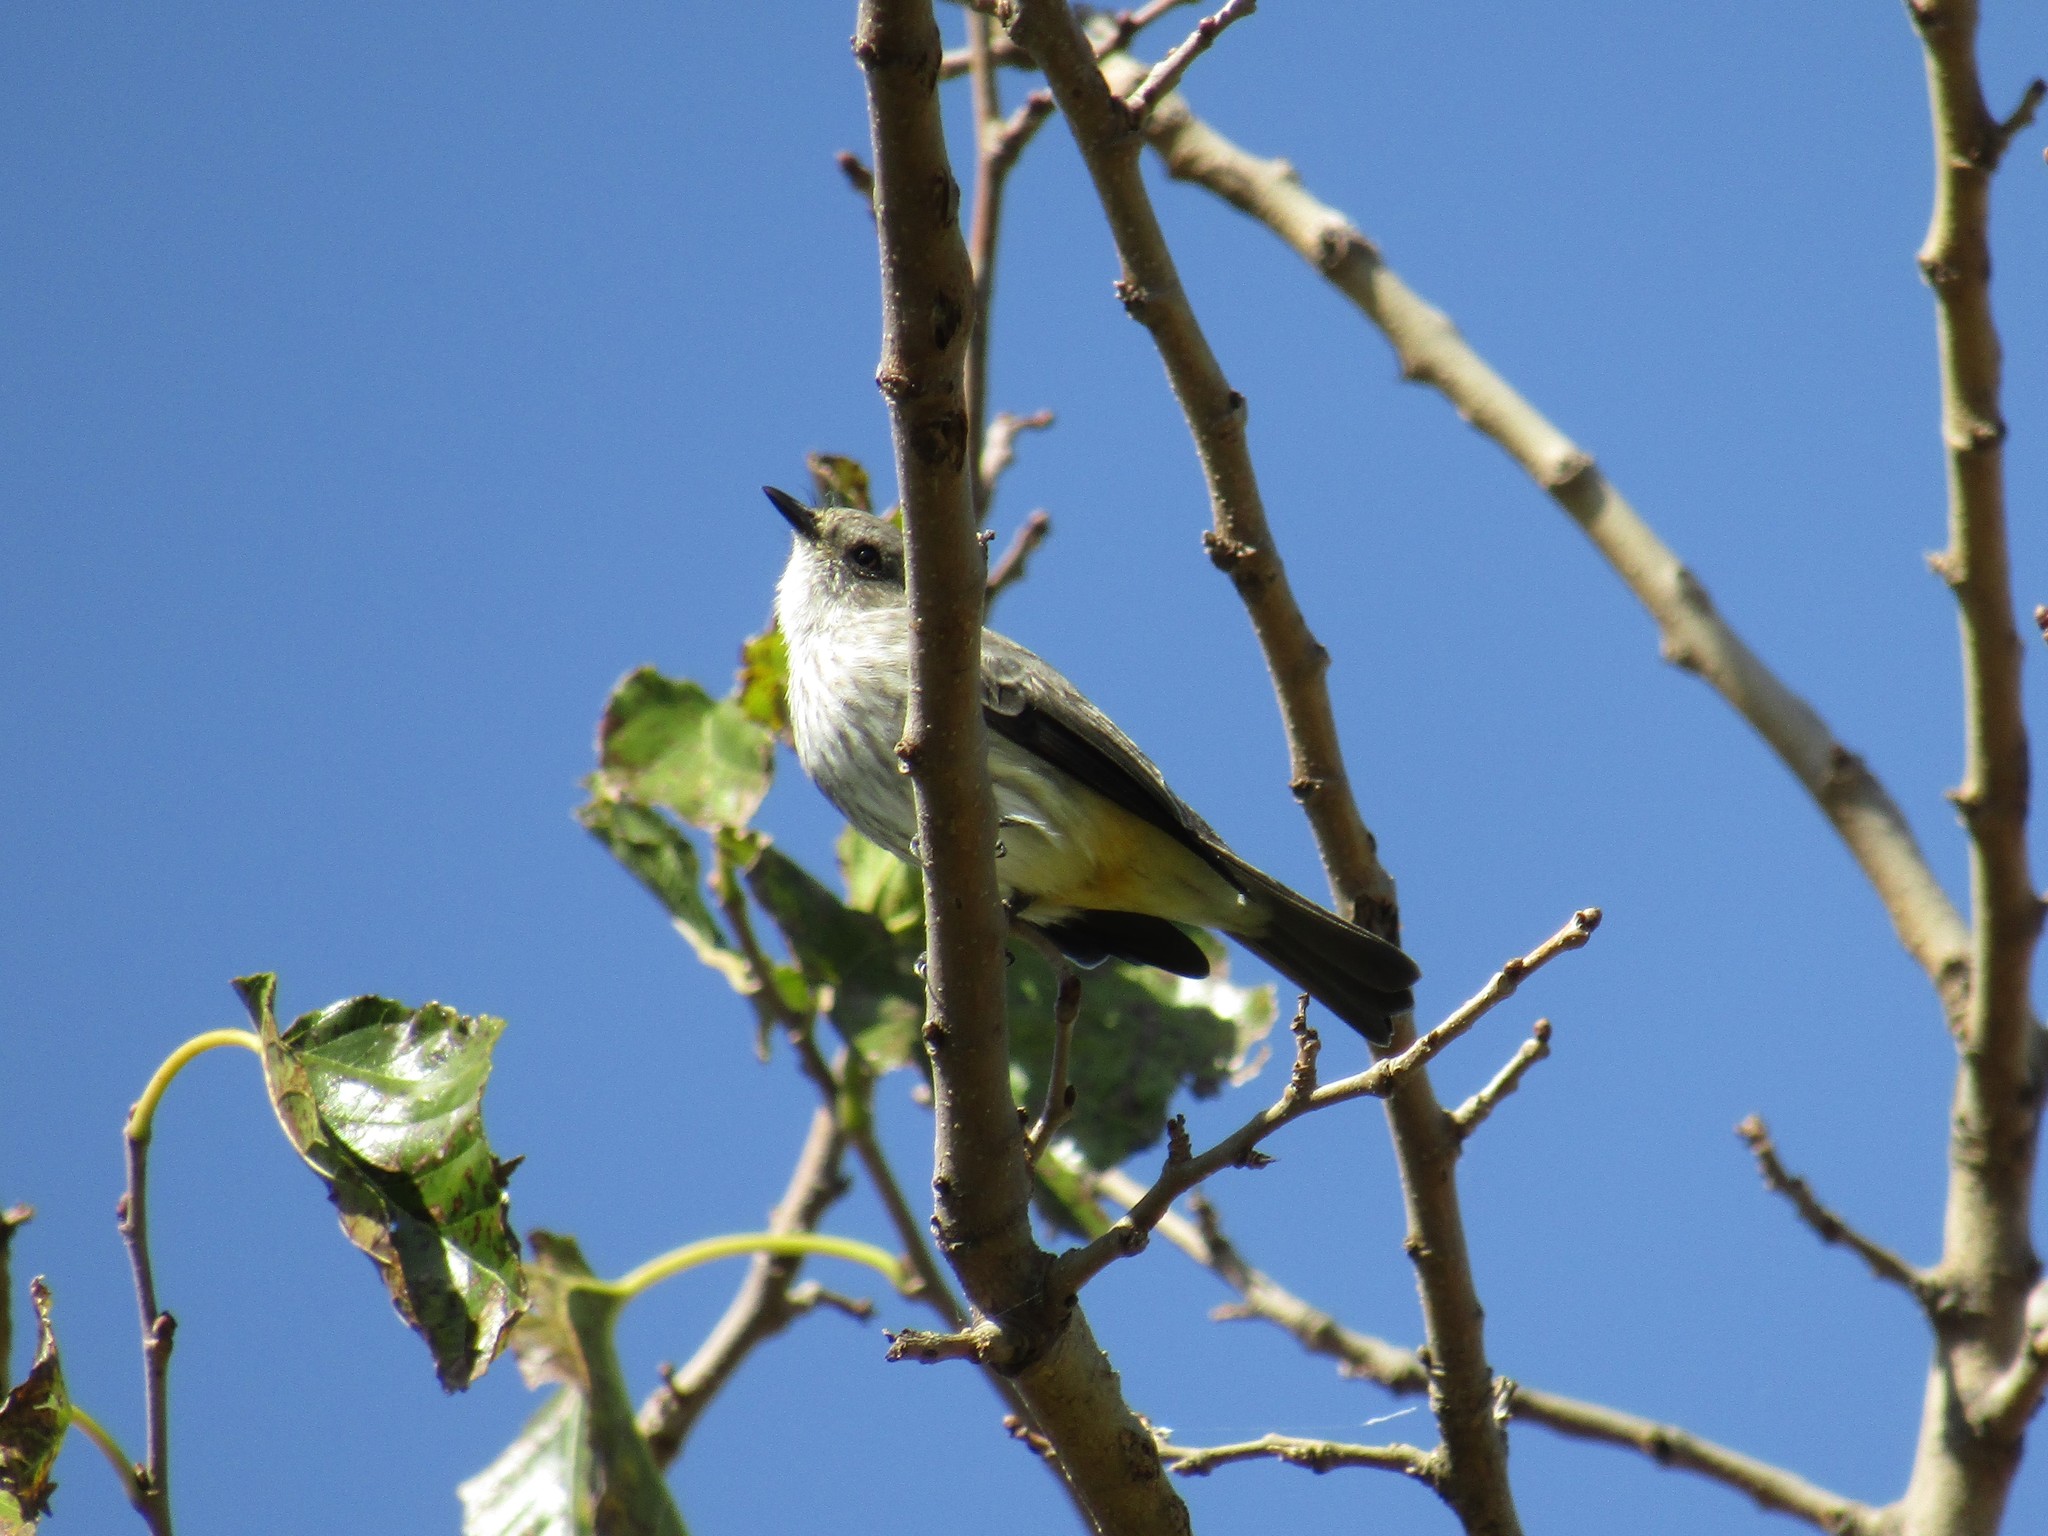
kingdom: Animalia
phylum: Chordata
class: Aves
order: Passeriformes
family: Tyrannidae
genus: Pyrocephalus
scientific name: Pyrocephalus rubinus
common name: Vermilion flycatcher
